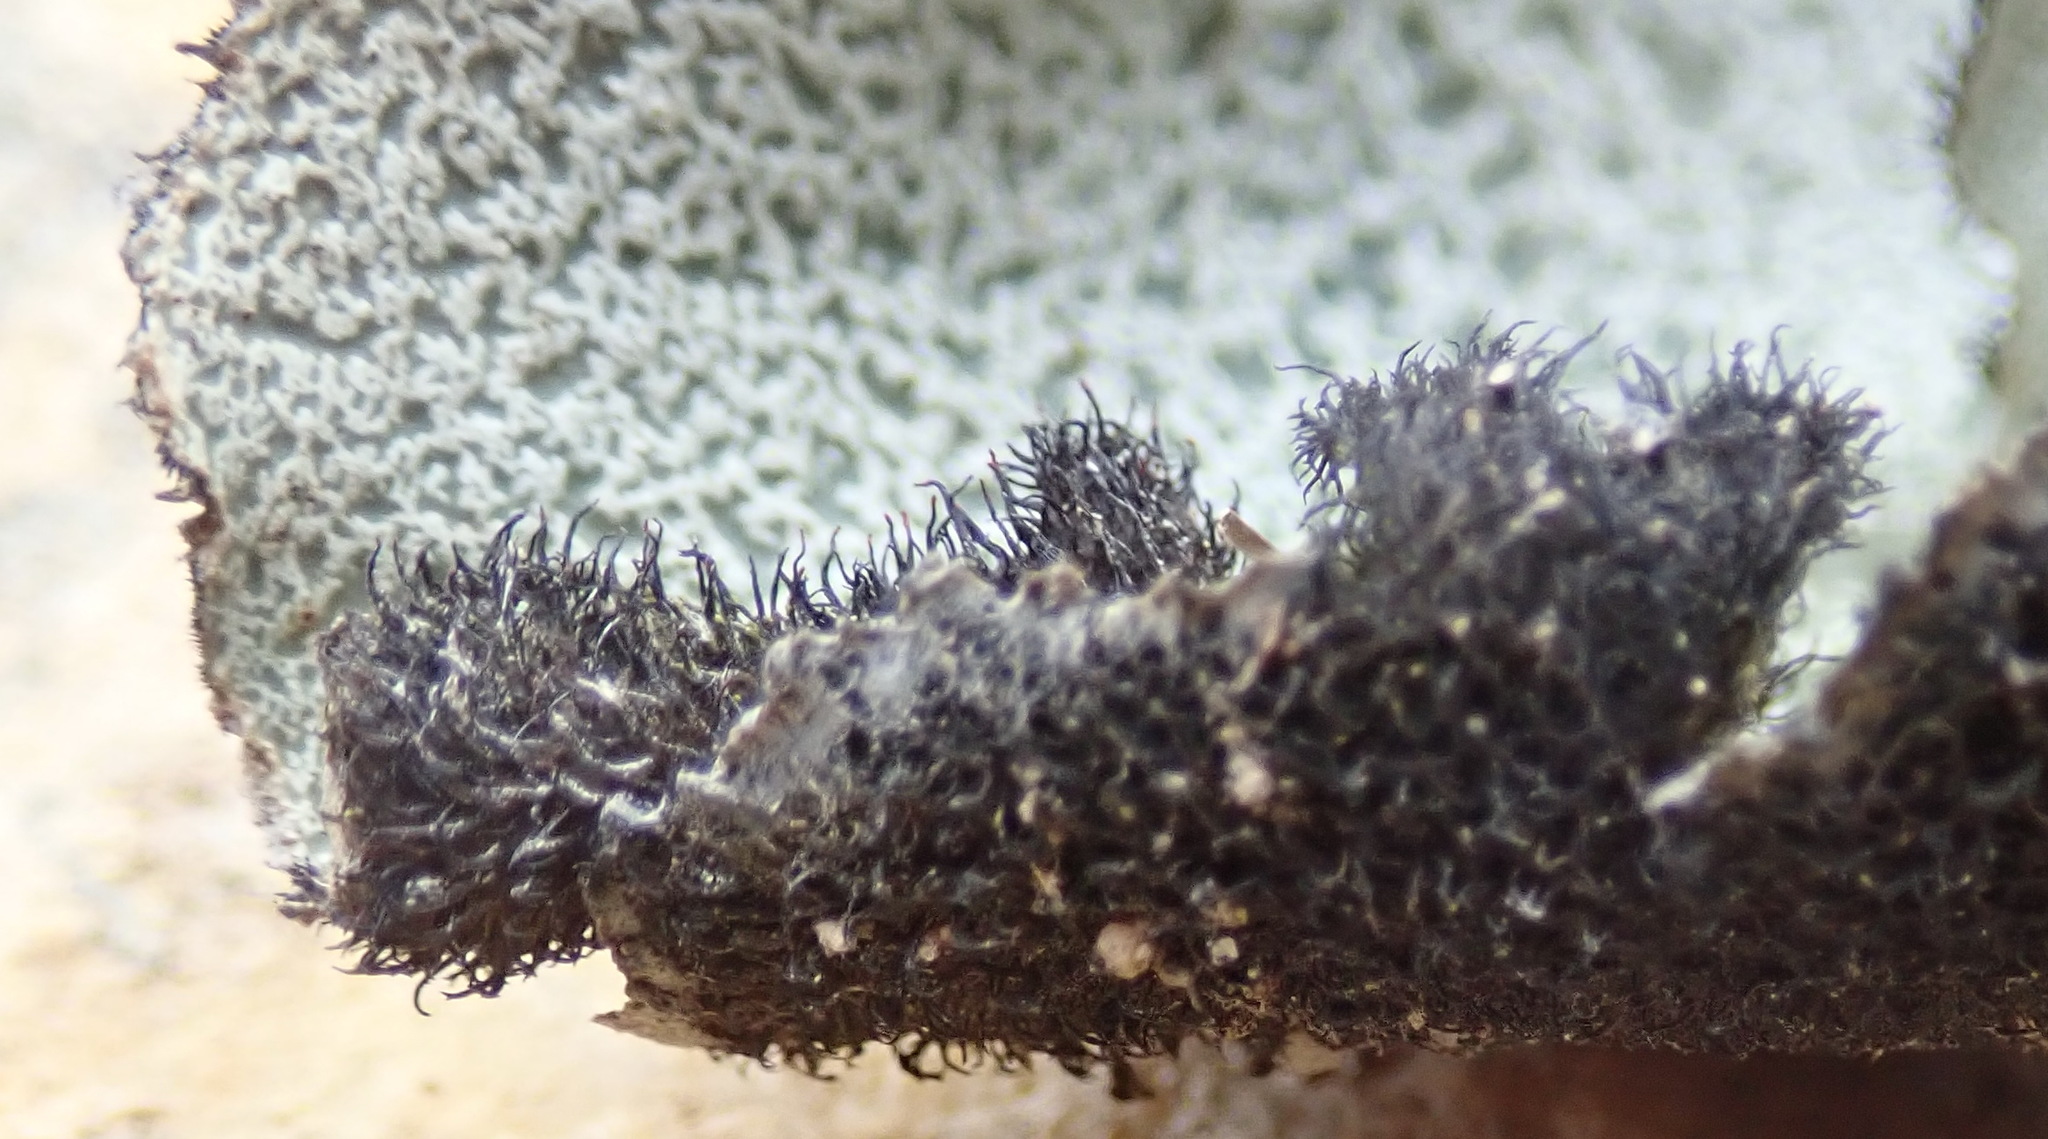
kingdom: Fungi
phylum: Ascomycota
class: Lecanoromycetes
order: Lecanorales
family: Parmeliaceae
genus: Xanthoparmelia
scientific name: Xanthoparmelia hottentotta
